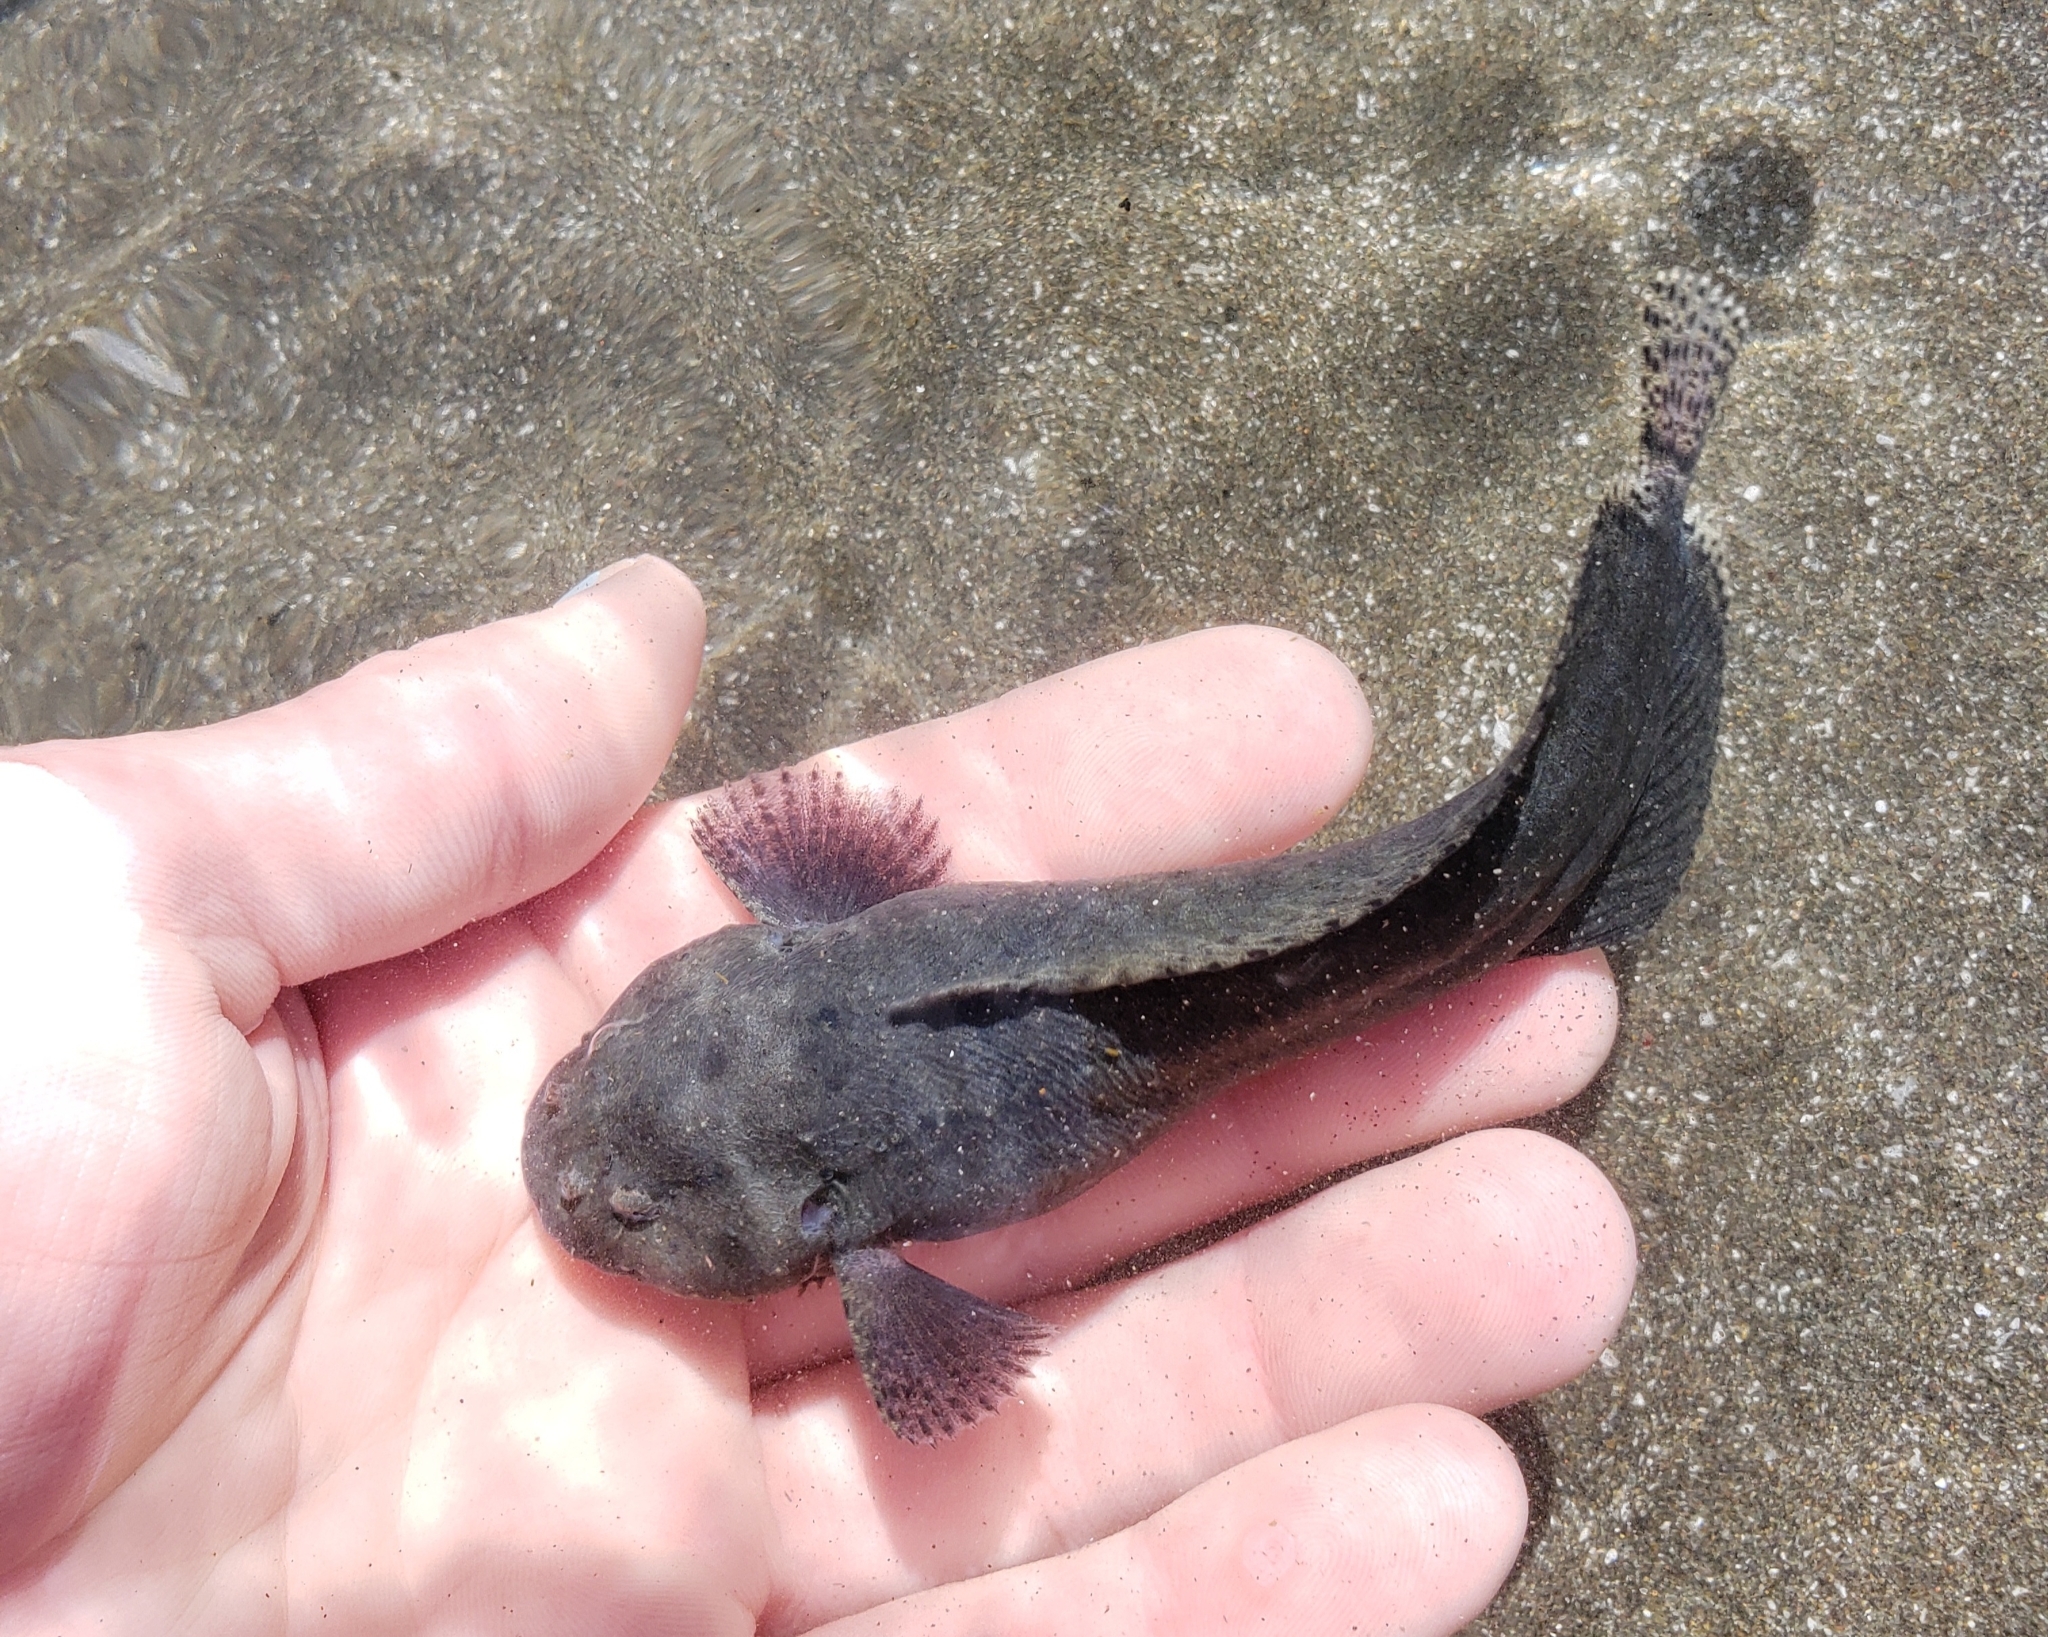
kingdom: Animalia
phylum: Chordata
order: Scorpaeniformes
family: Liparidae
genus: Liparis
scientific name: Liparis adiastolus
